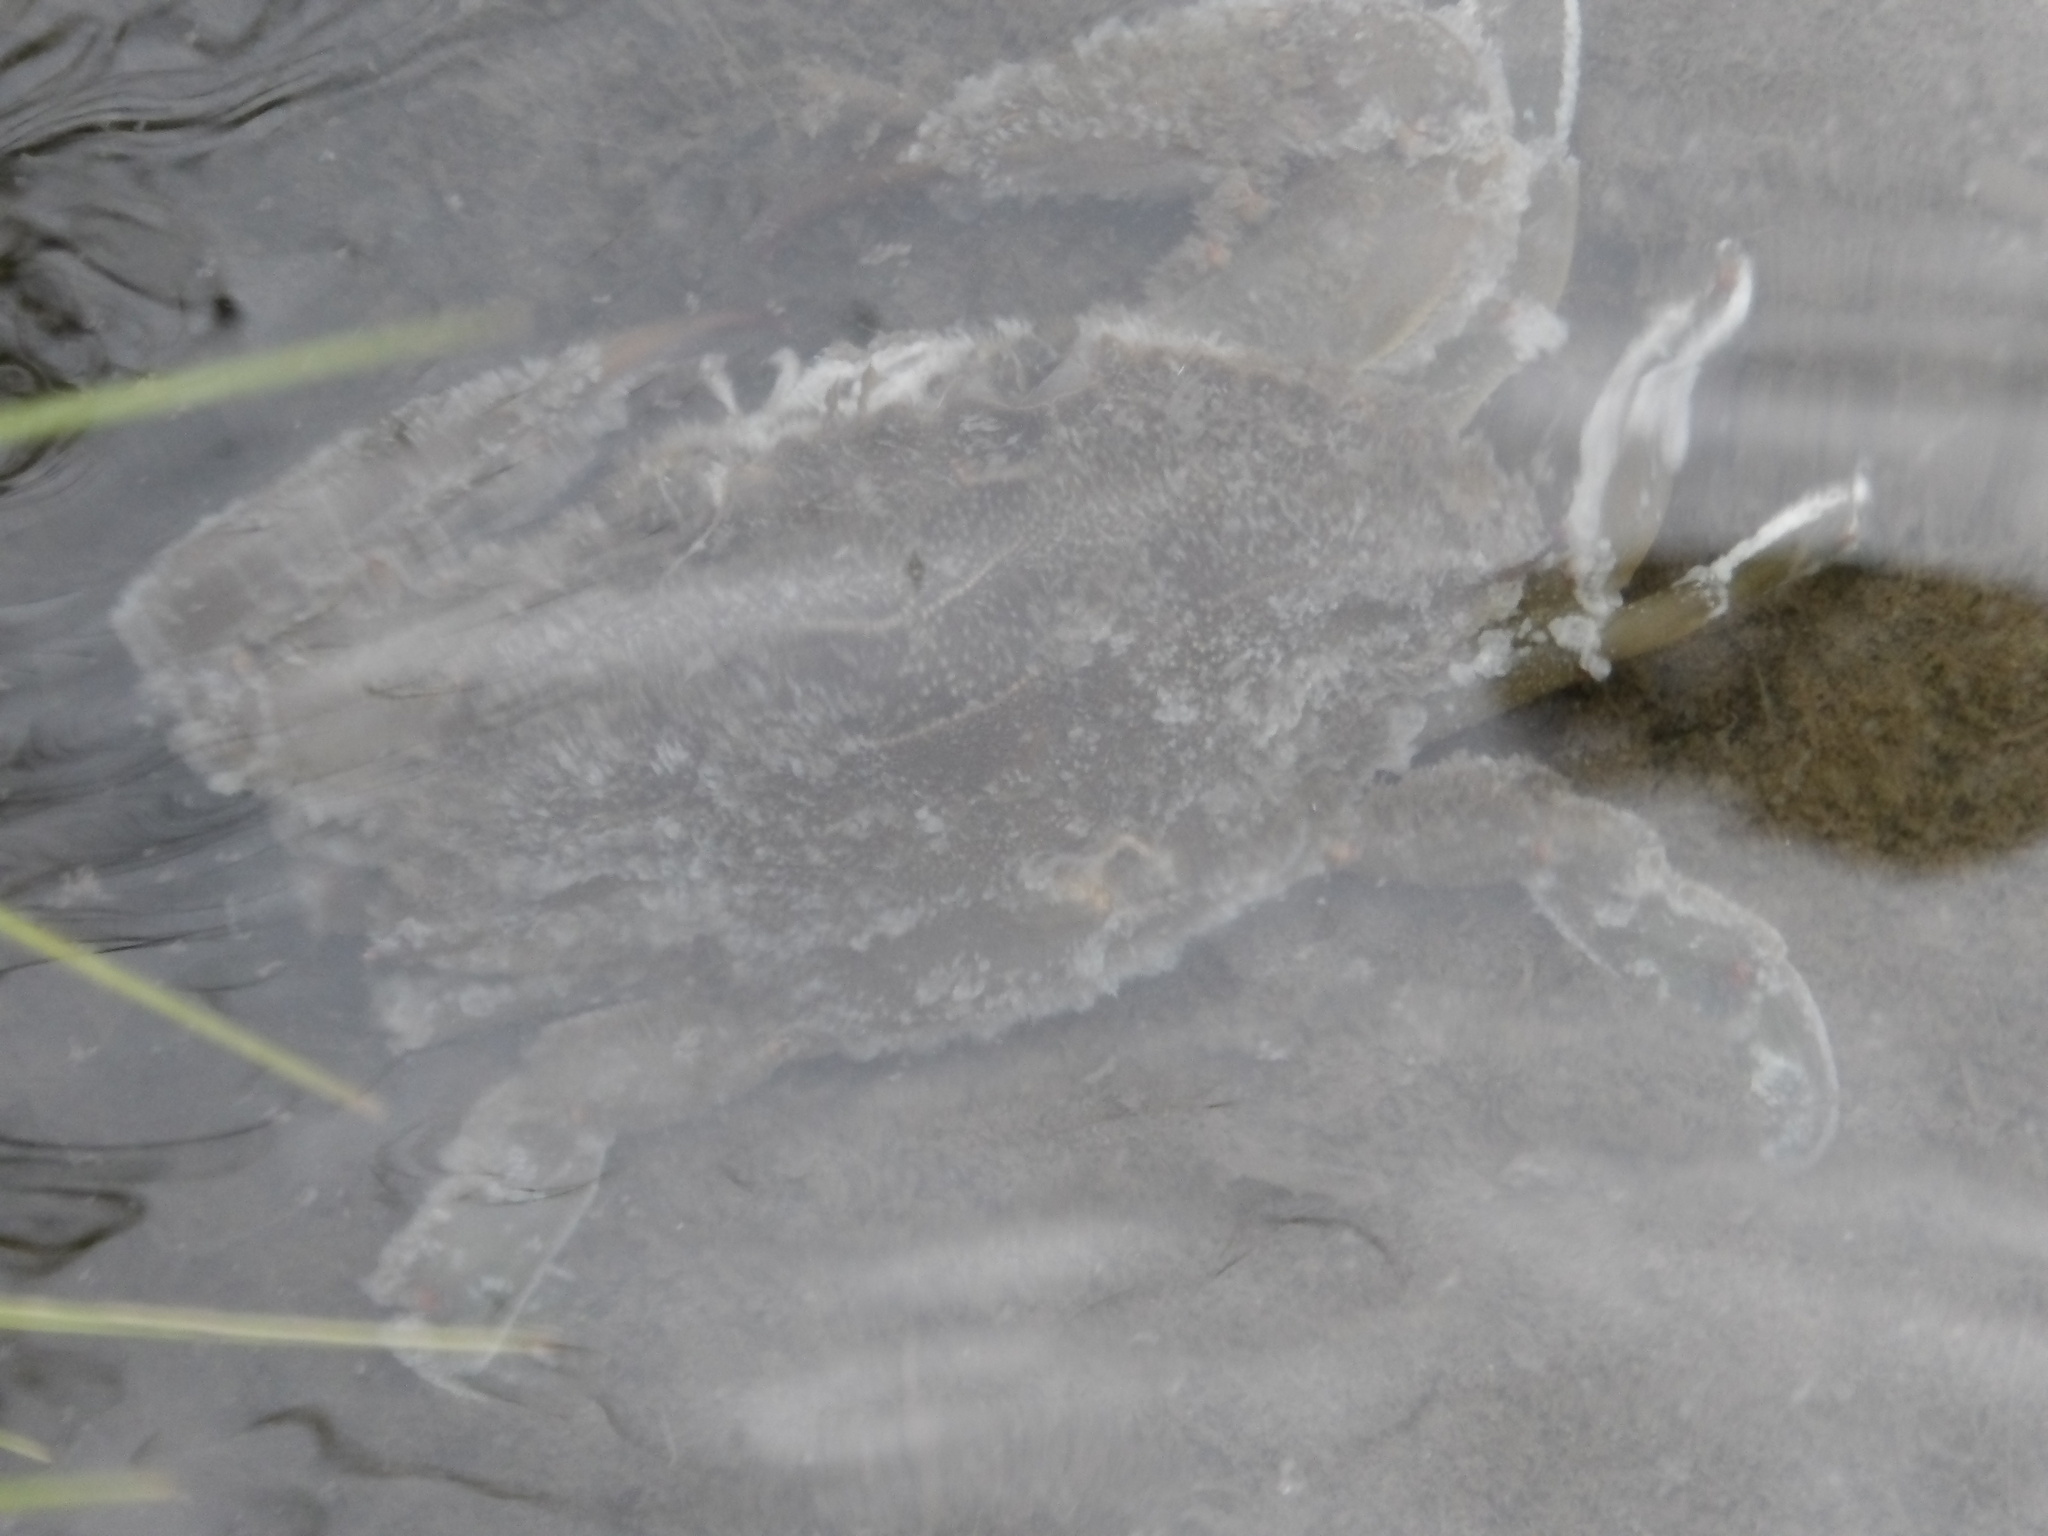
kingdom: Animalia
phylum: Arthropoda
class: Malacostraca
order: Decapoda
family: Portunidae
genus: Callinectes
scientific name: Callinectes sapidus
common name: Blue crab
